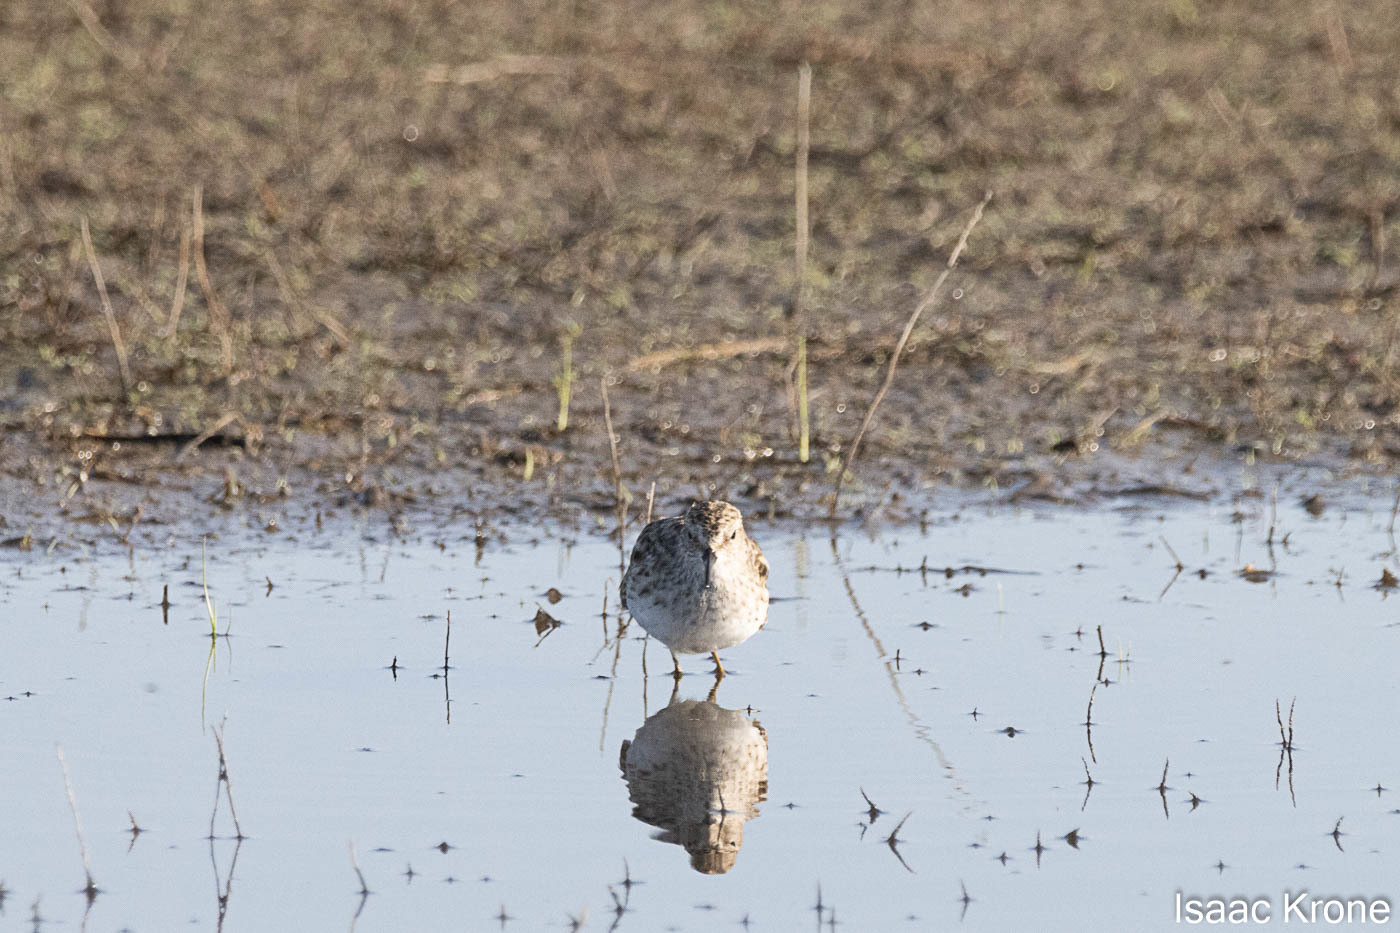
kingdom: Animalia
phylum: Chordata
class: Aves
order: Charadriiformes
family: Scolopacidae
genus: Calidris
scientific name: Calidris minutilla
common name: Least sandpiper
